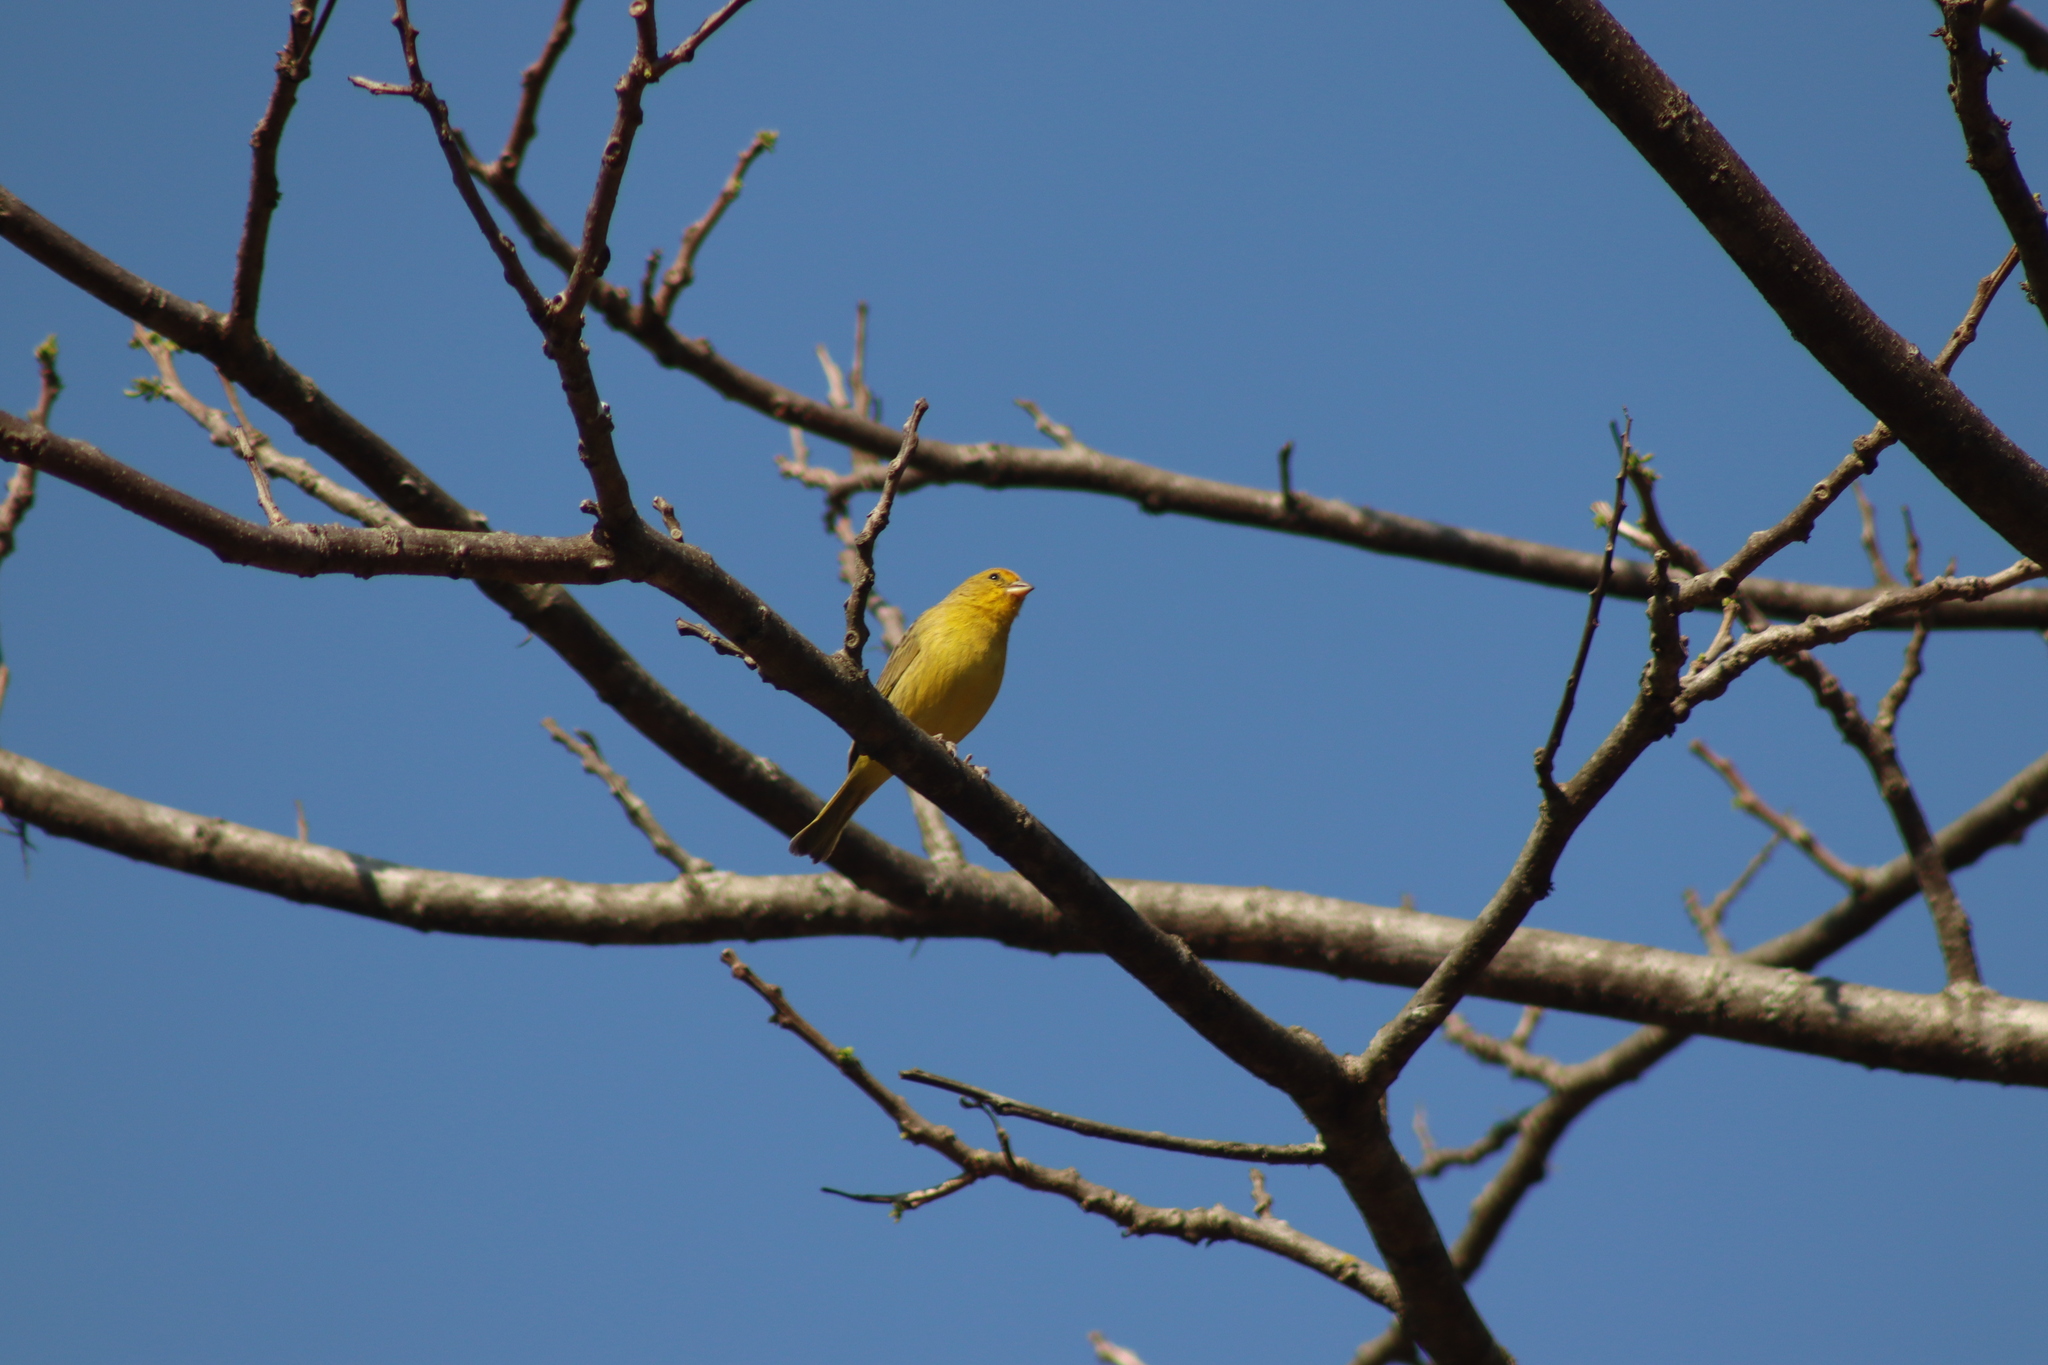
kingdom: Animalia
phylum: Chordata
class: Aves
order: Passeriformes
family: Thraupidae
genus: Sicalis
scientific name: Sicalis flaveola
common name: Saffron finch
